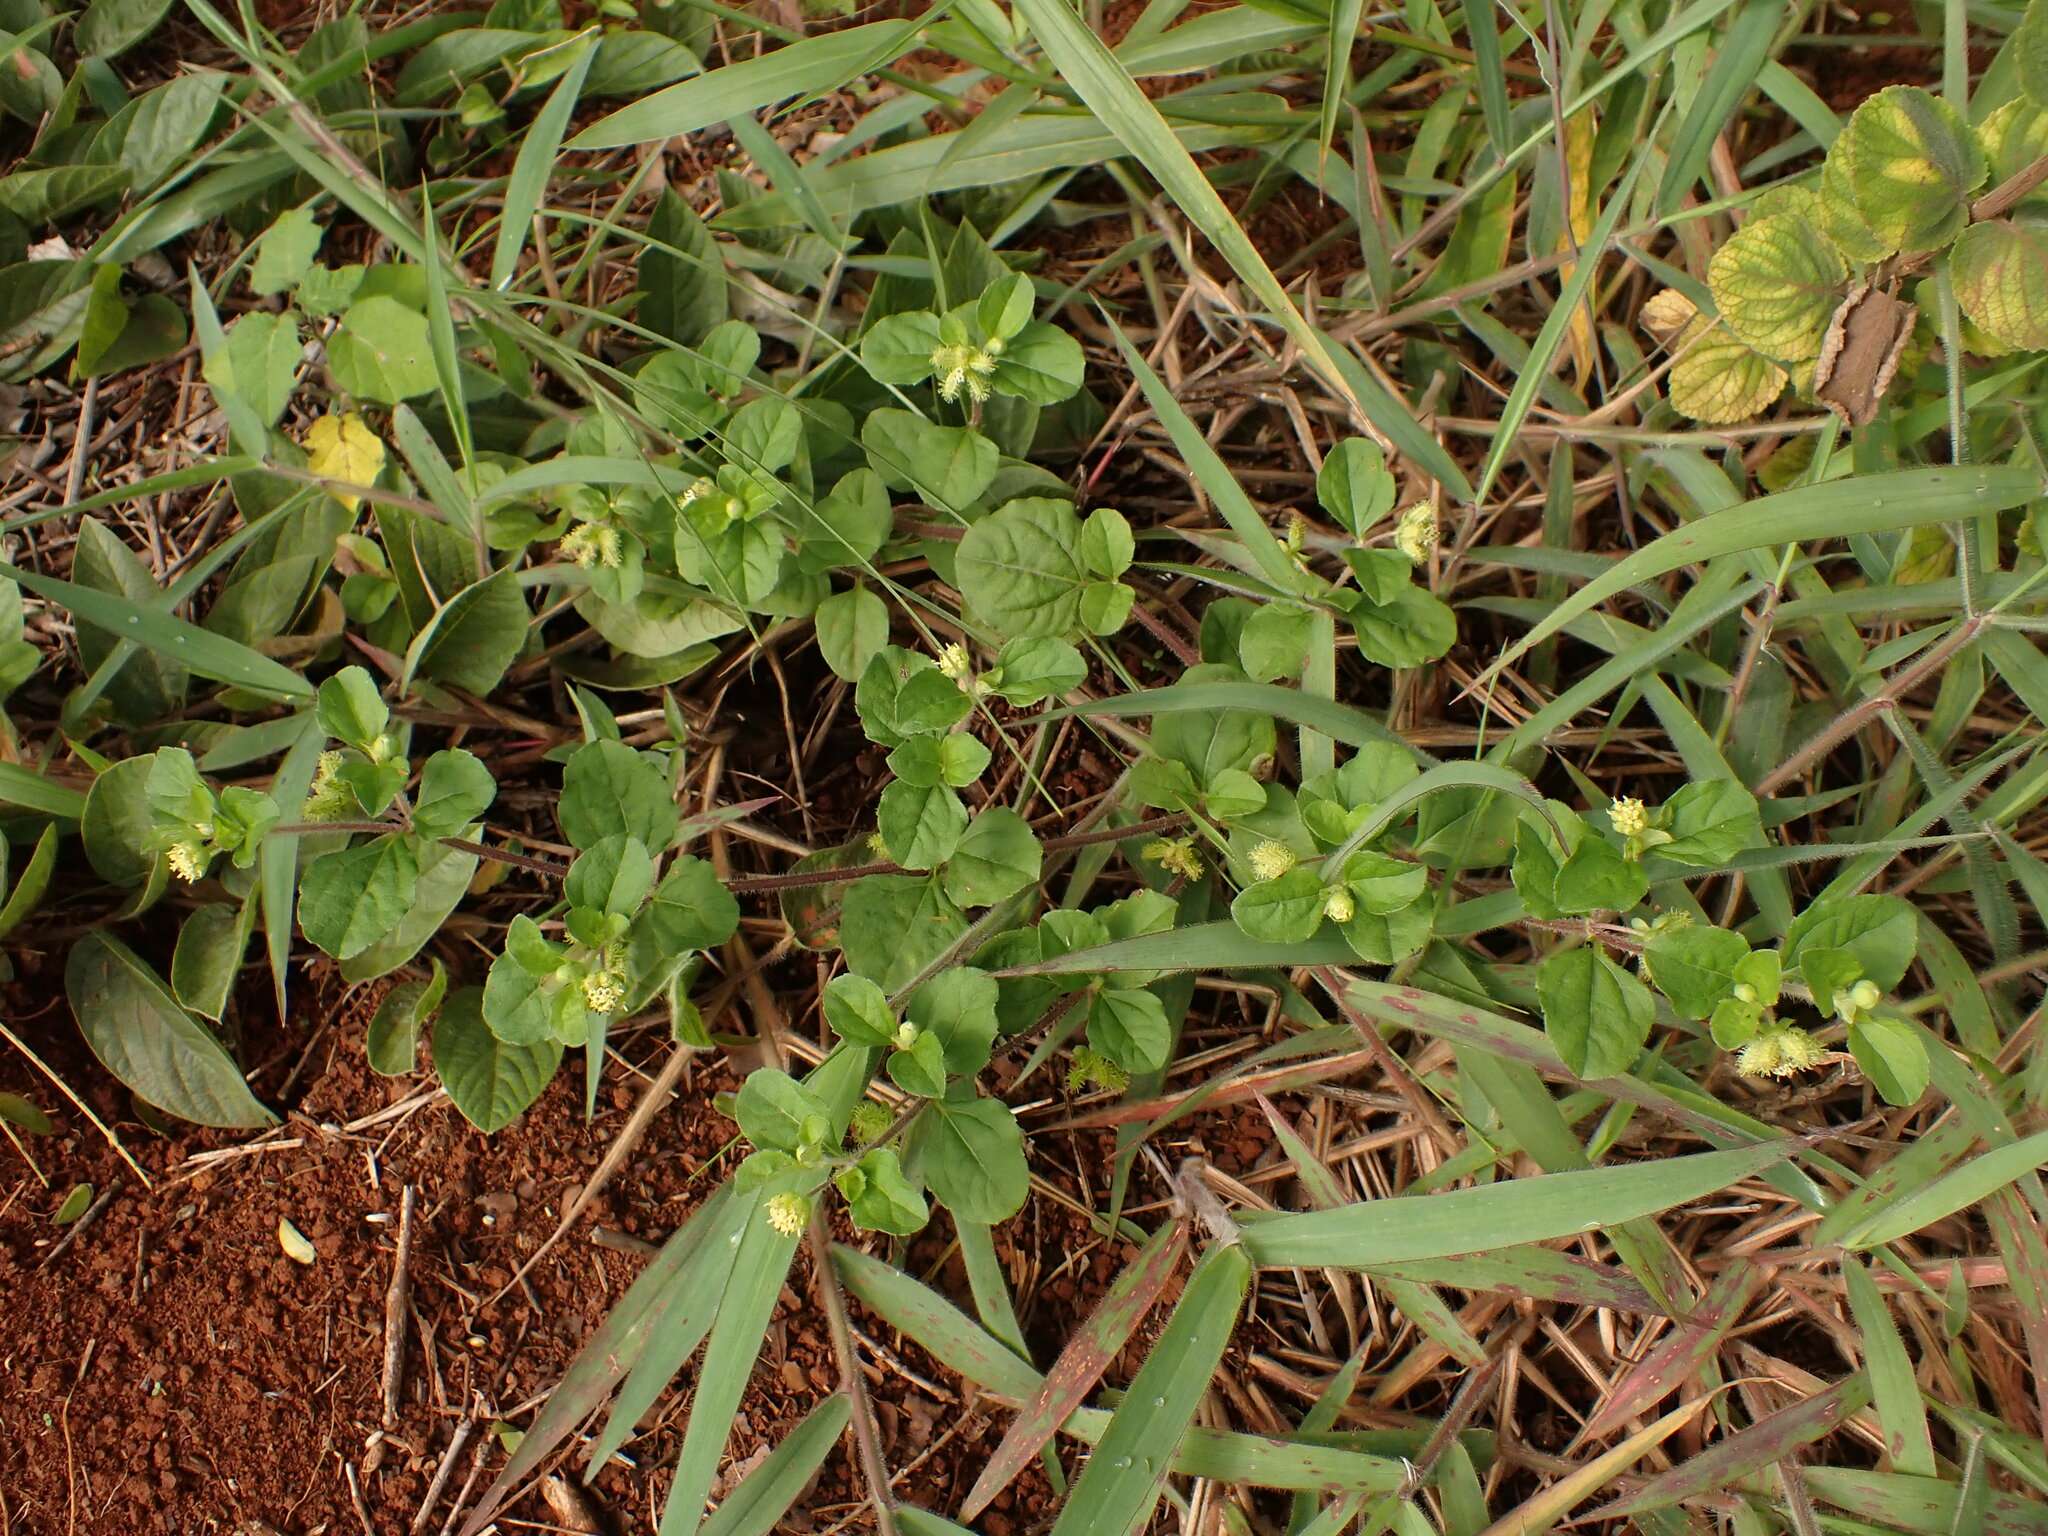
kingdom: Plantae
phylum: Tracheophyta
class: Magnoliopsida
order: Asterales
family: Asteraceae
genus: Acanthospermum
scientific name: Acanthospermum australe
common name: Paraguayan starbur
